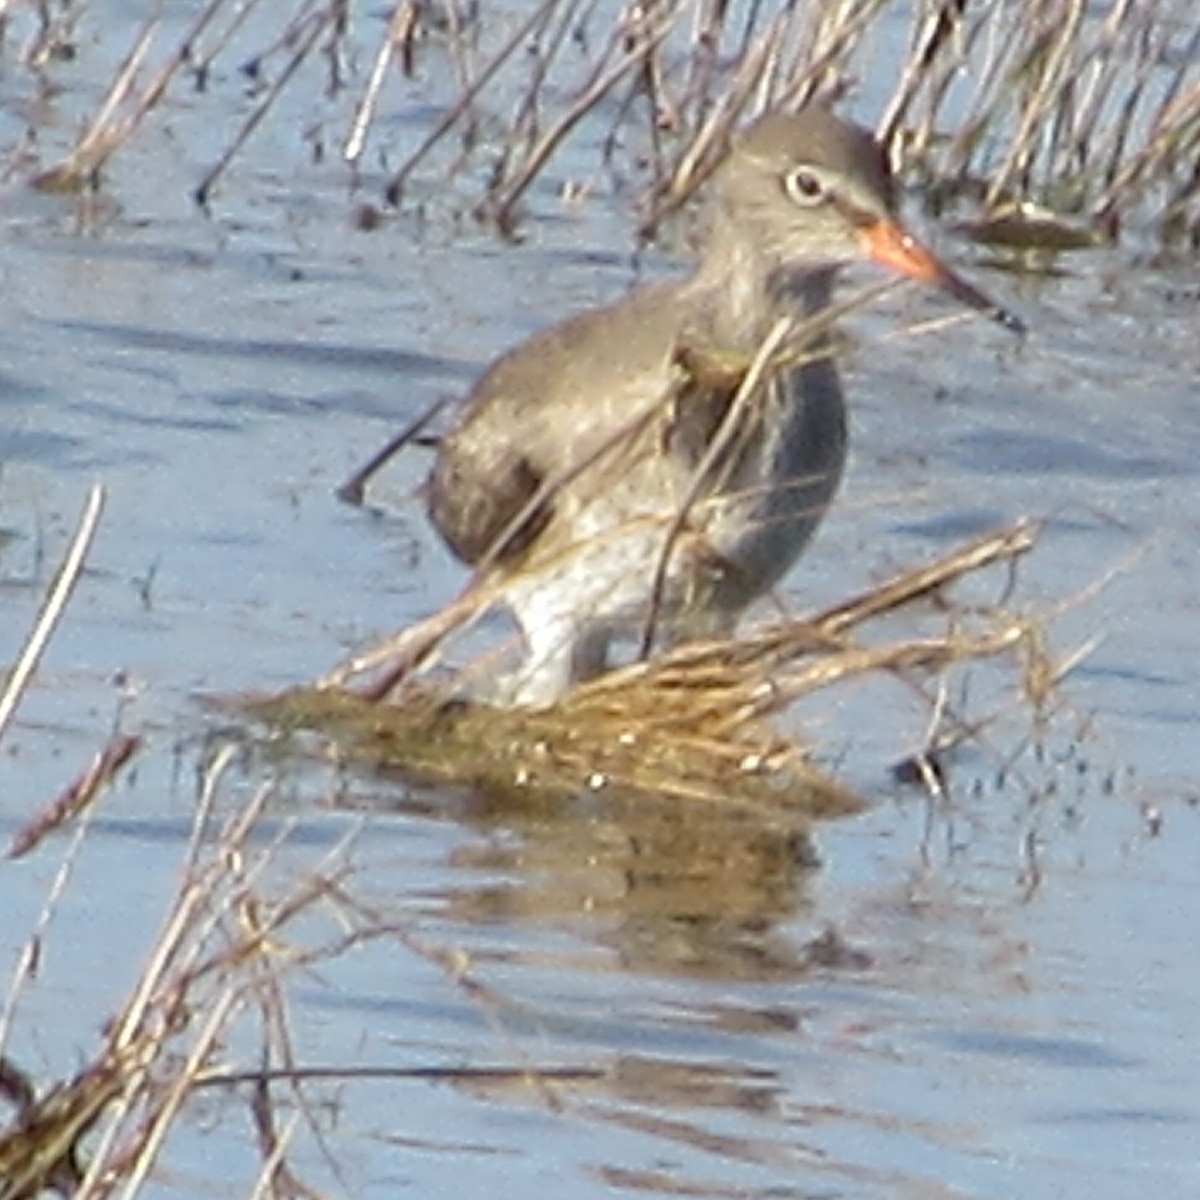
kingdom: Animalia
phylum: Chordata
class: Aves
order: Charadriiformes
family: Scolopacidae
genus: Tringa
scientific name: Tringa totanus
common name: Common redshank
